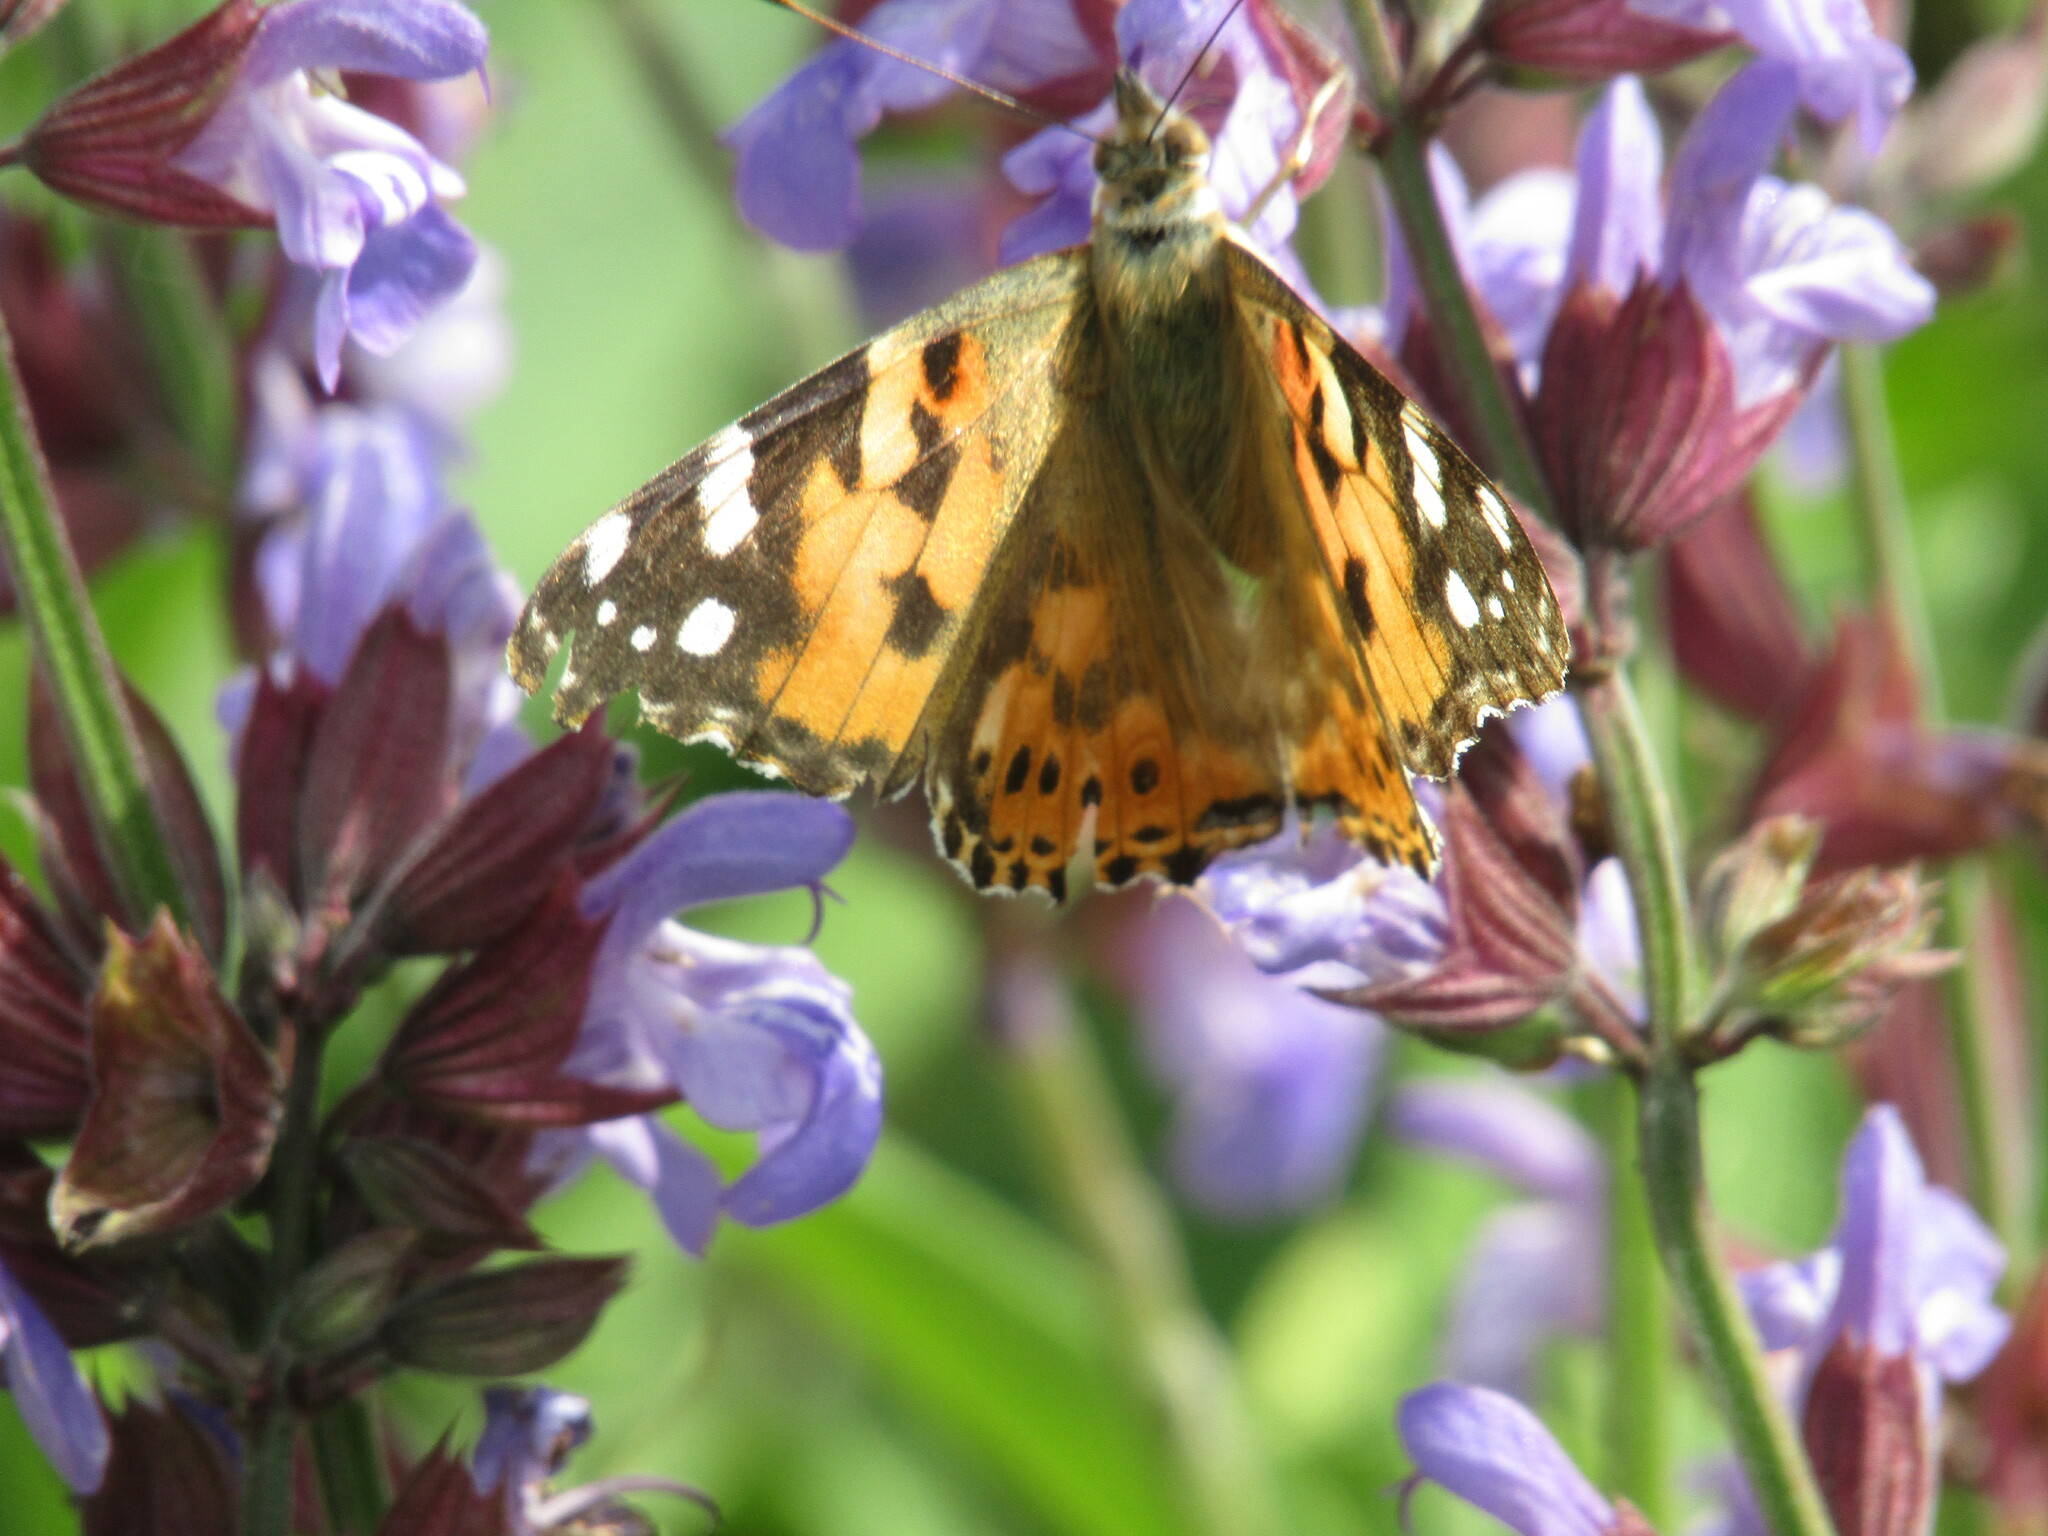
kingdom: Animalia
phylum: Arthropoda
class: Insecta
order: Lepidoptera
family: Nymphalidae
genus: Vanessa
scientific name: Vanessa cardui
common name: Painted lady
